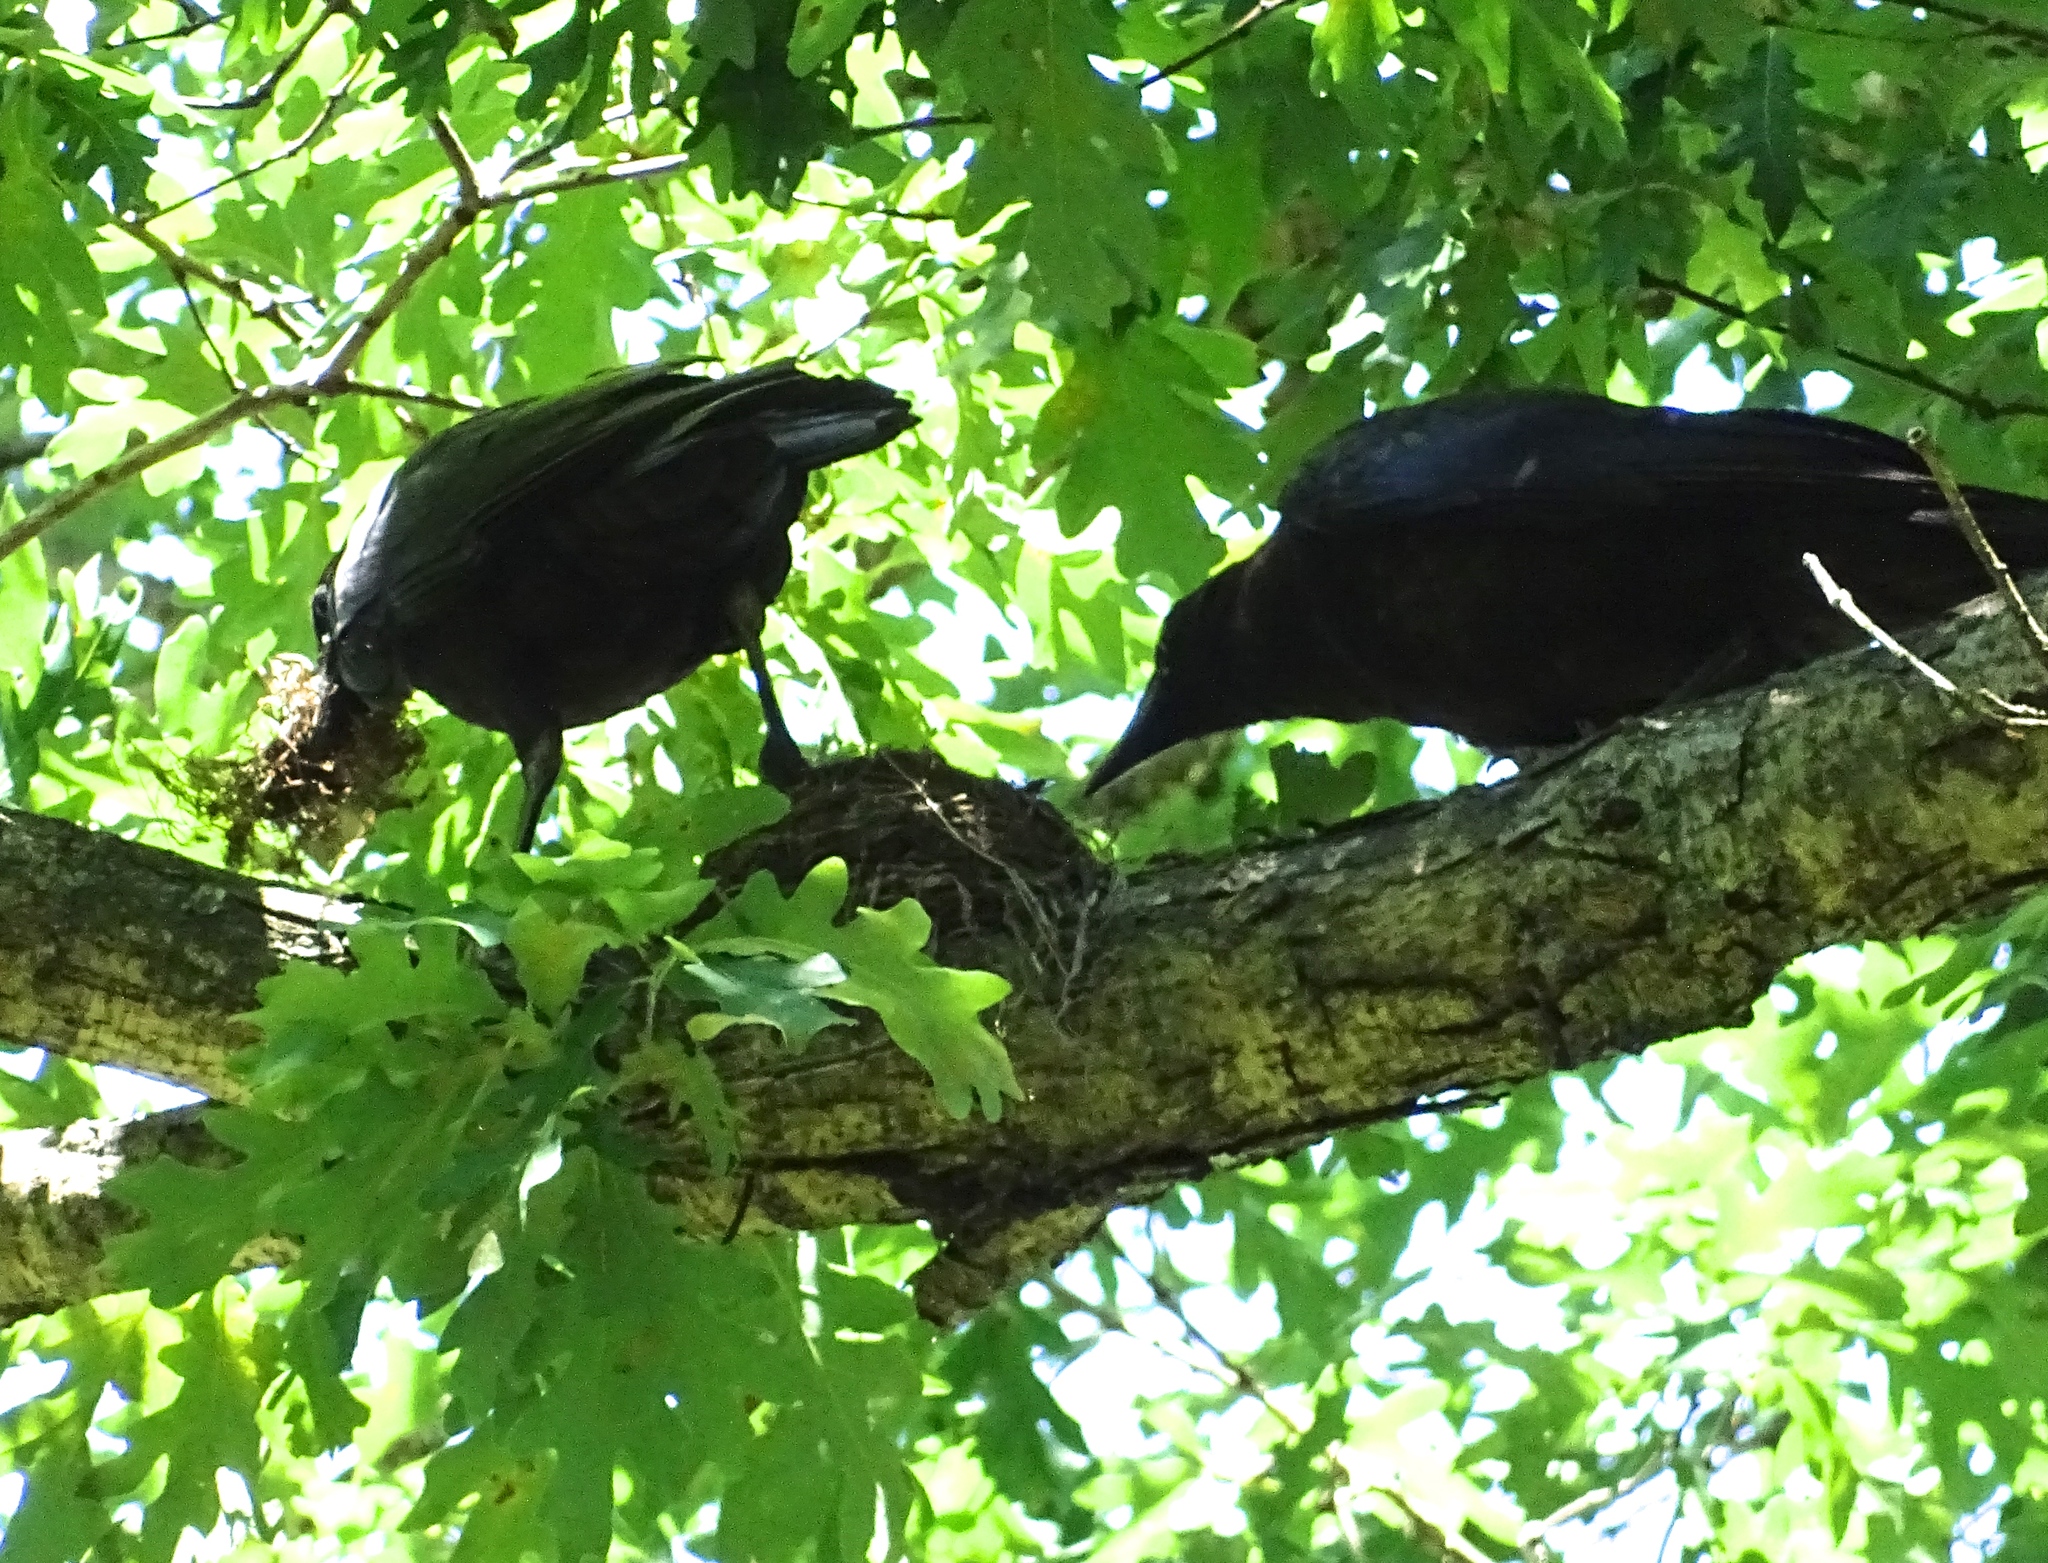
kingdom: Animalia
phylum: Chordata
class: Aves
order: Passeriformes
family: Corvidae
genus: Corvus
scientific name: Corvus brachyrhynchos
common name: American crow
